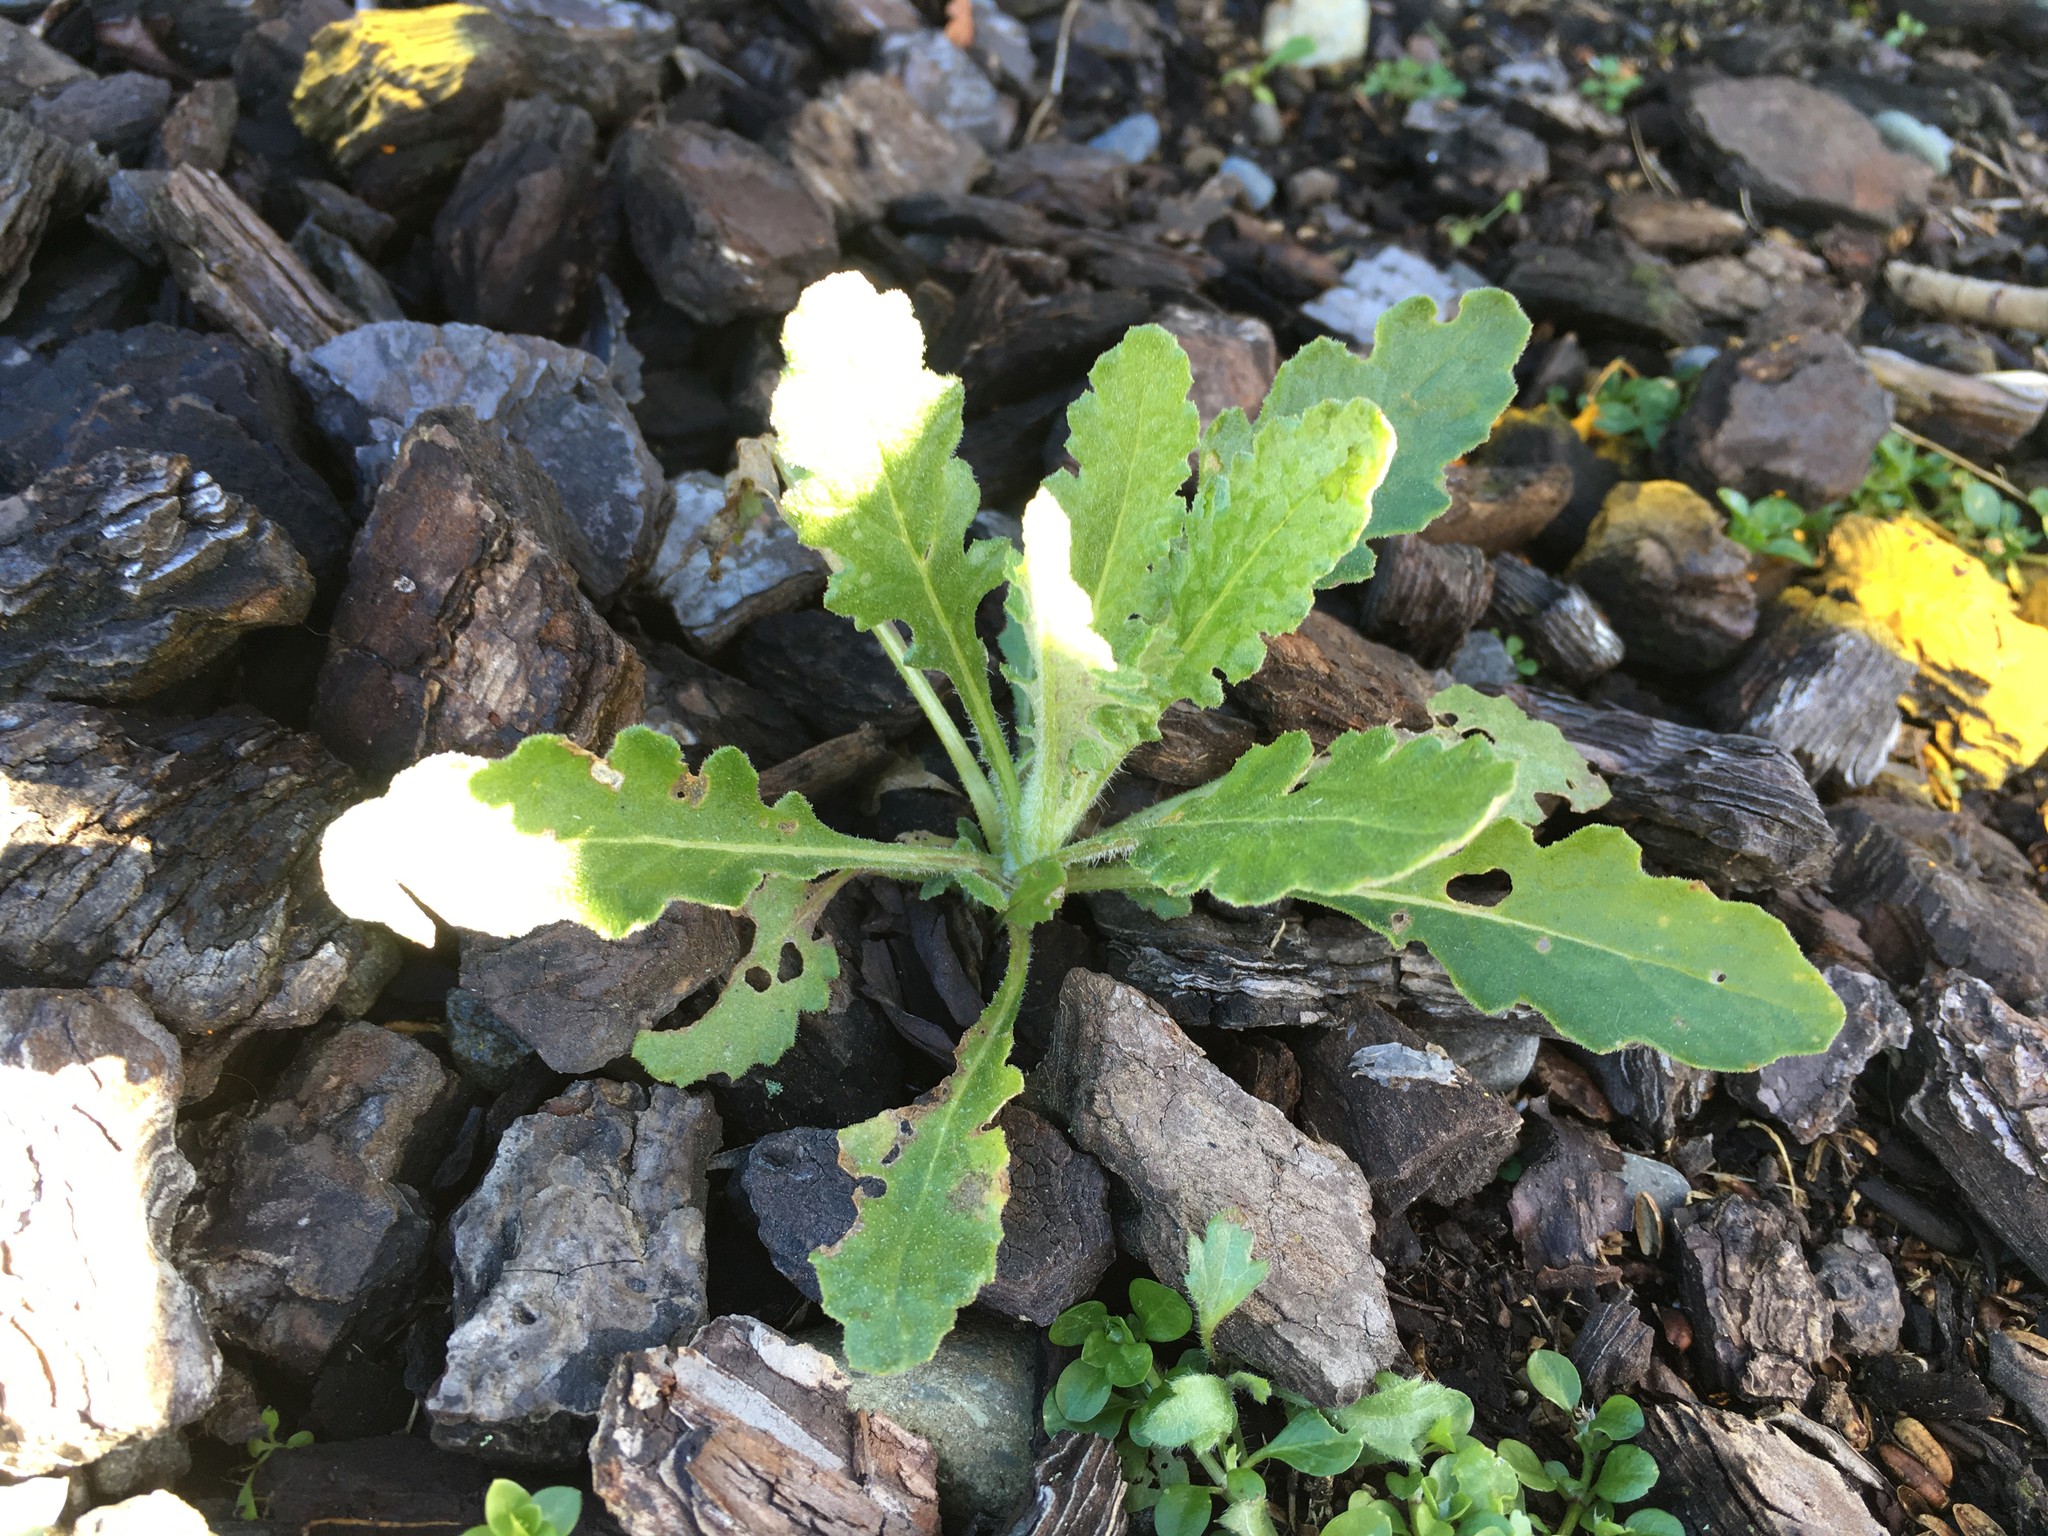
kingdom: Plantae
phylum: Tracheophyta
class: Magnoliopsida
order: Asterales
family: Asteraceae
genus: Senecio
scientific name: Senecio glomeratus
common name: Cutleaf burnweed
